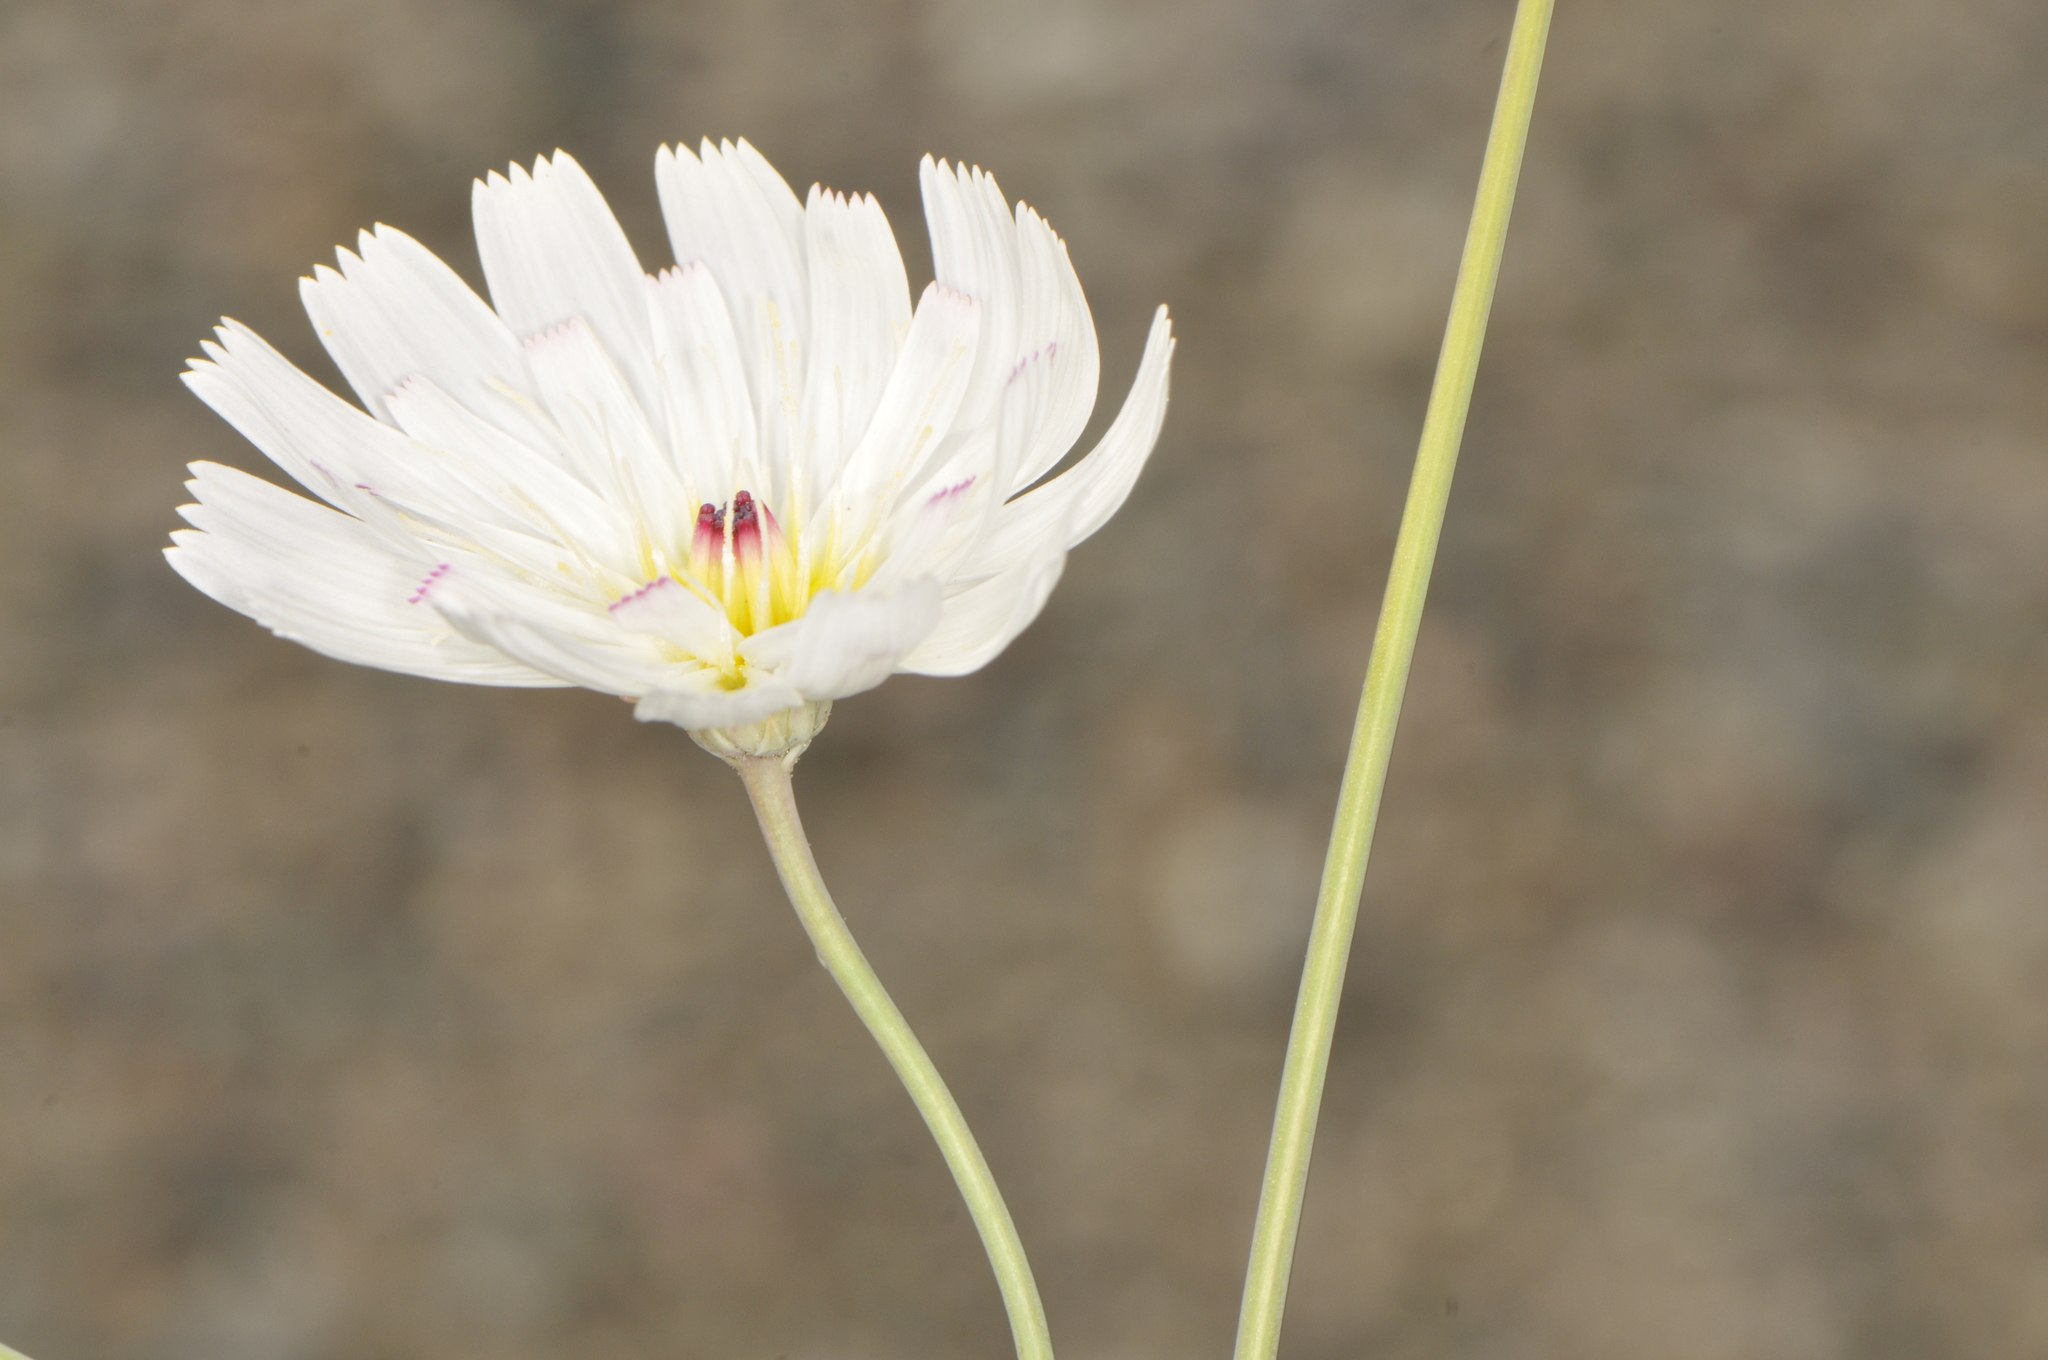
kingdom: Plantae
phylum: Tracheophyta
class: Magnoliopsida
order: Asterales
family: Asteraceae
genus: Atrichoseris
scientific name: Atrichoseris platyphylla
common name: Tobaccoweed
